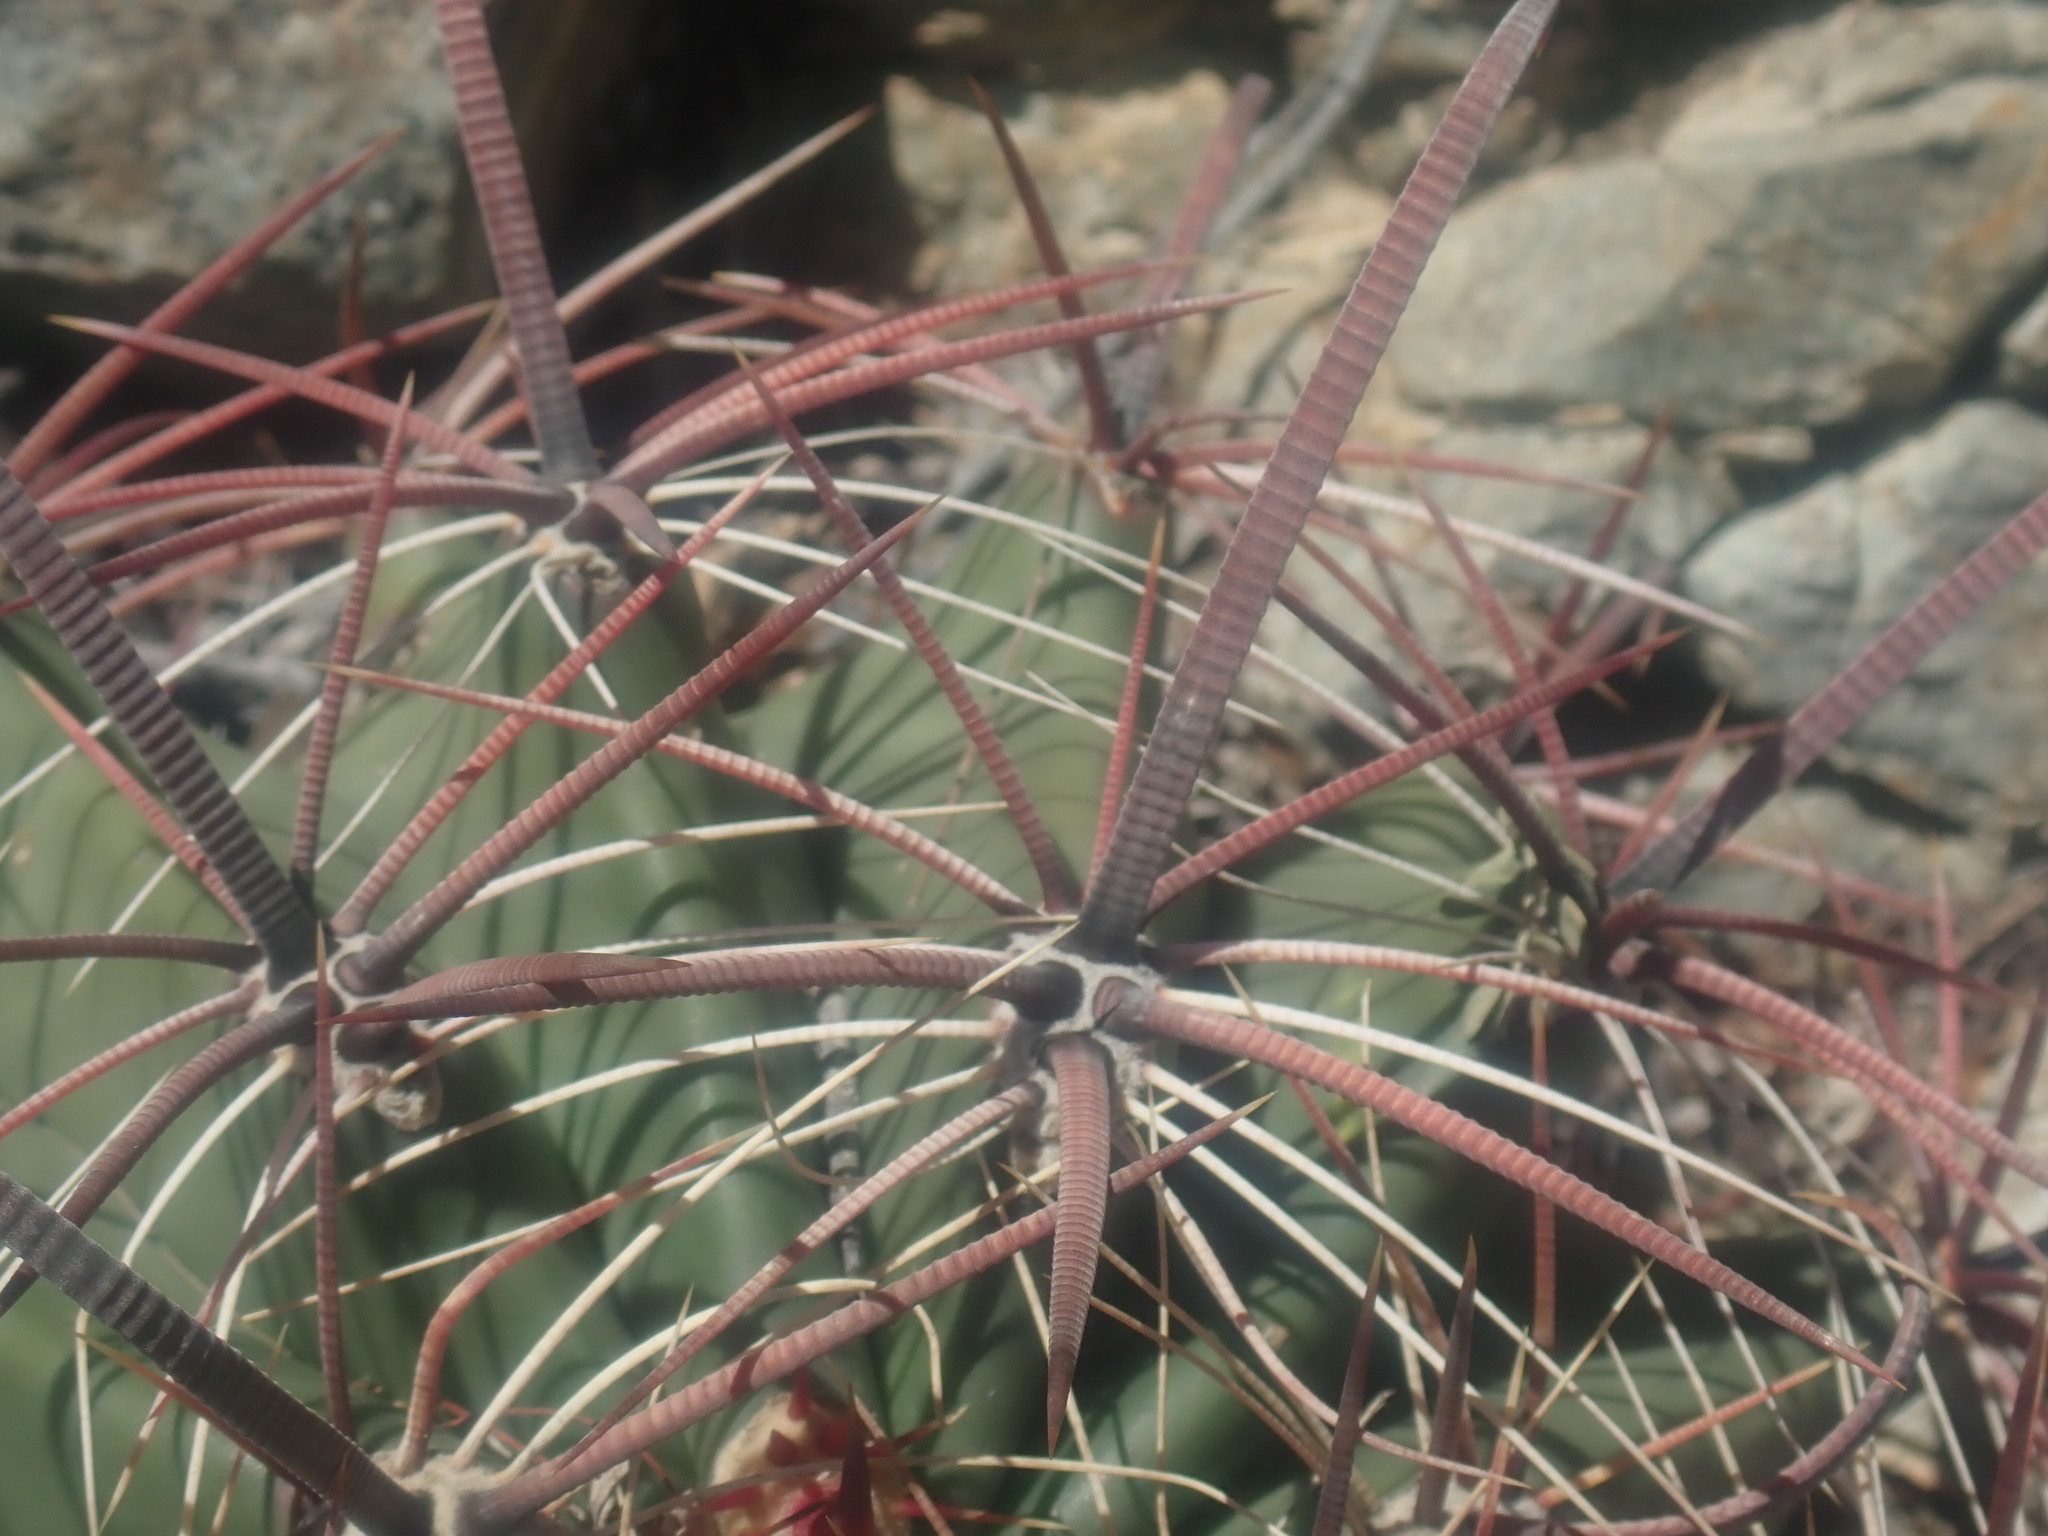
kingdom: Plantae
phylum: Tracheophyta
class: Magnoliopsida
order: Caryophyllales
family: Cactaceae
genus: Ferocactus
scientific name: Ferocactus wislizeni
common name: Candy barrel cactus
